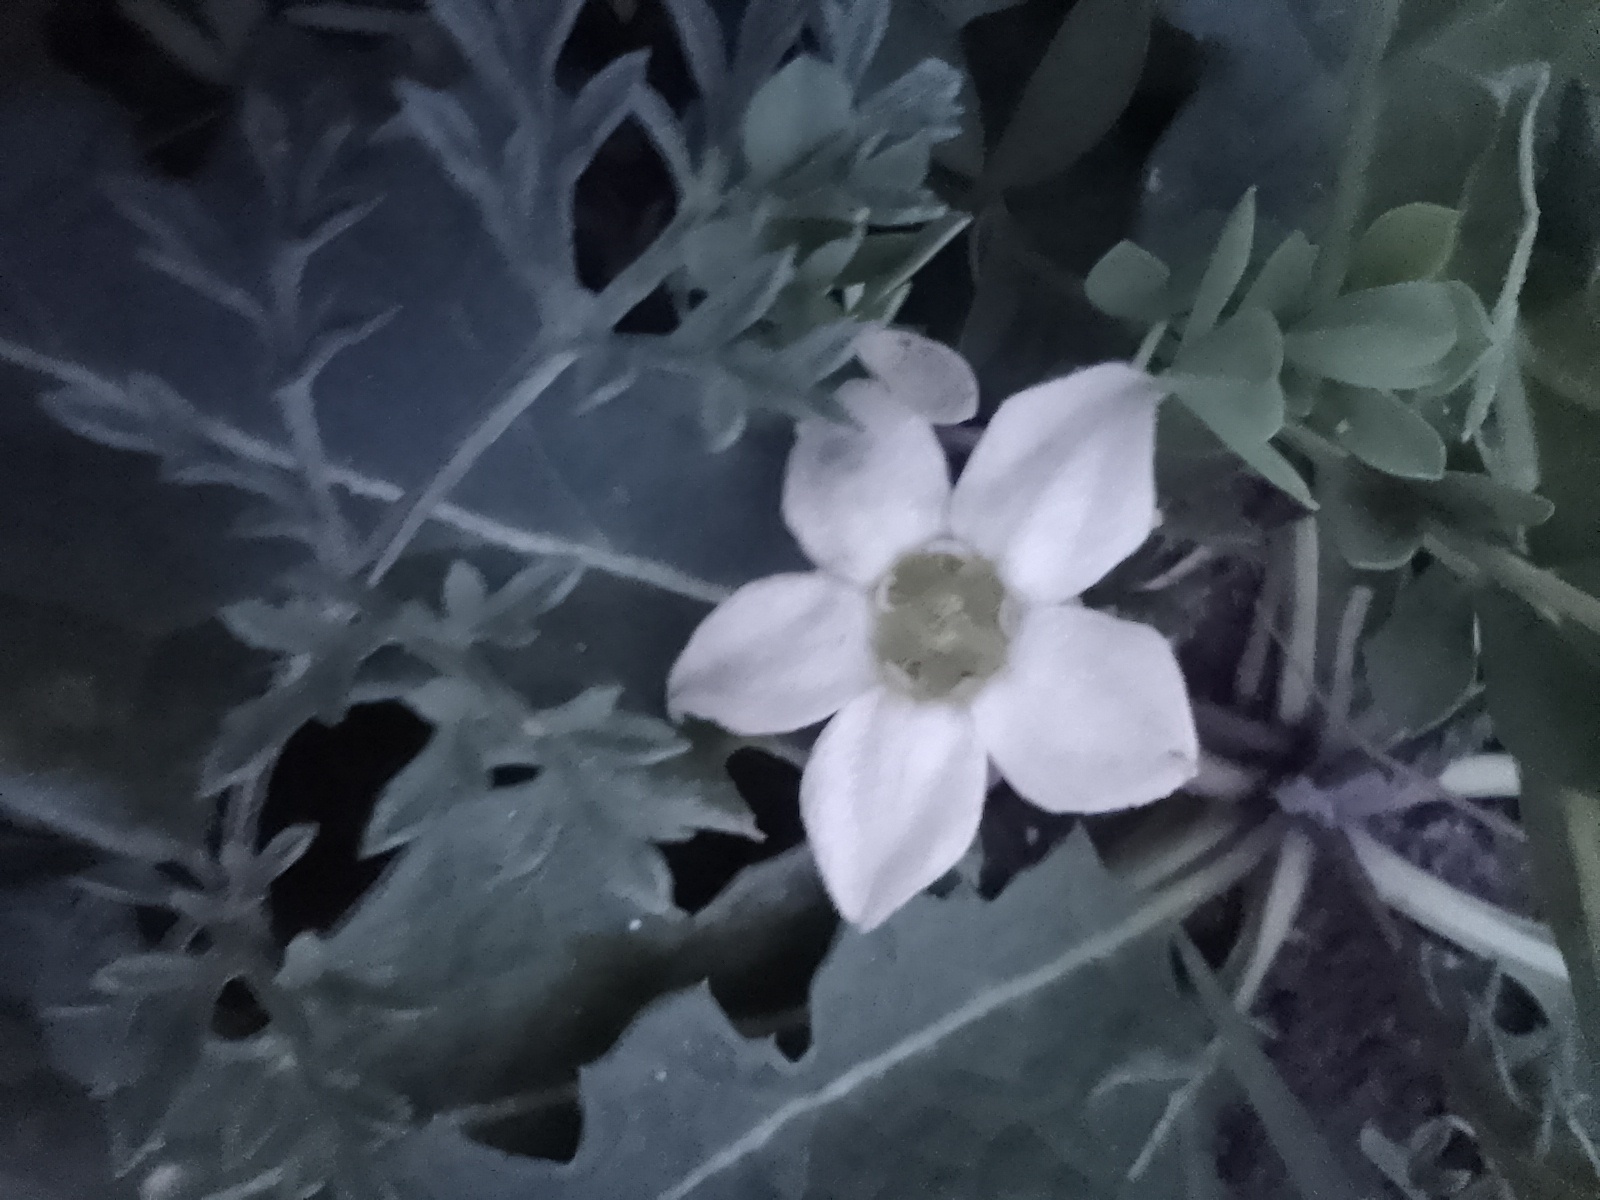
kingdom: Plantae
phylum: Tracheophyta
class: Magnoliopsida
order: Solanales
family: Solanaceae
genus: Jaborosa
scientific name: Jaborosa runcinata
